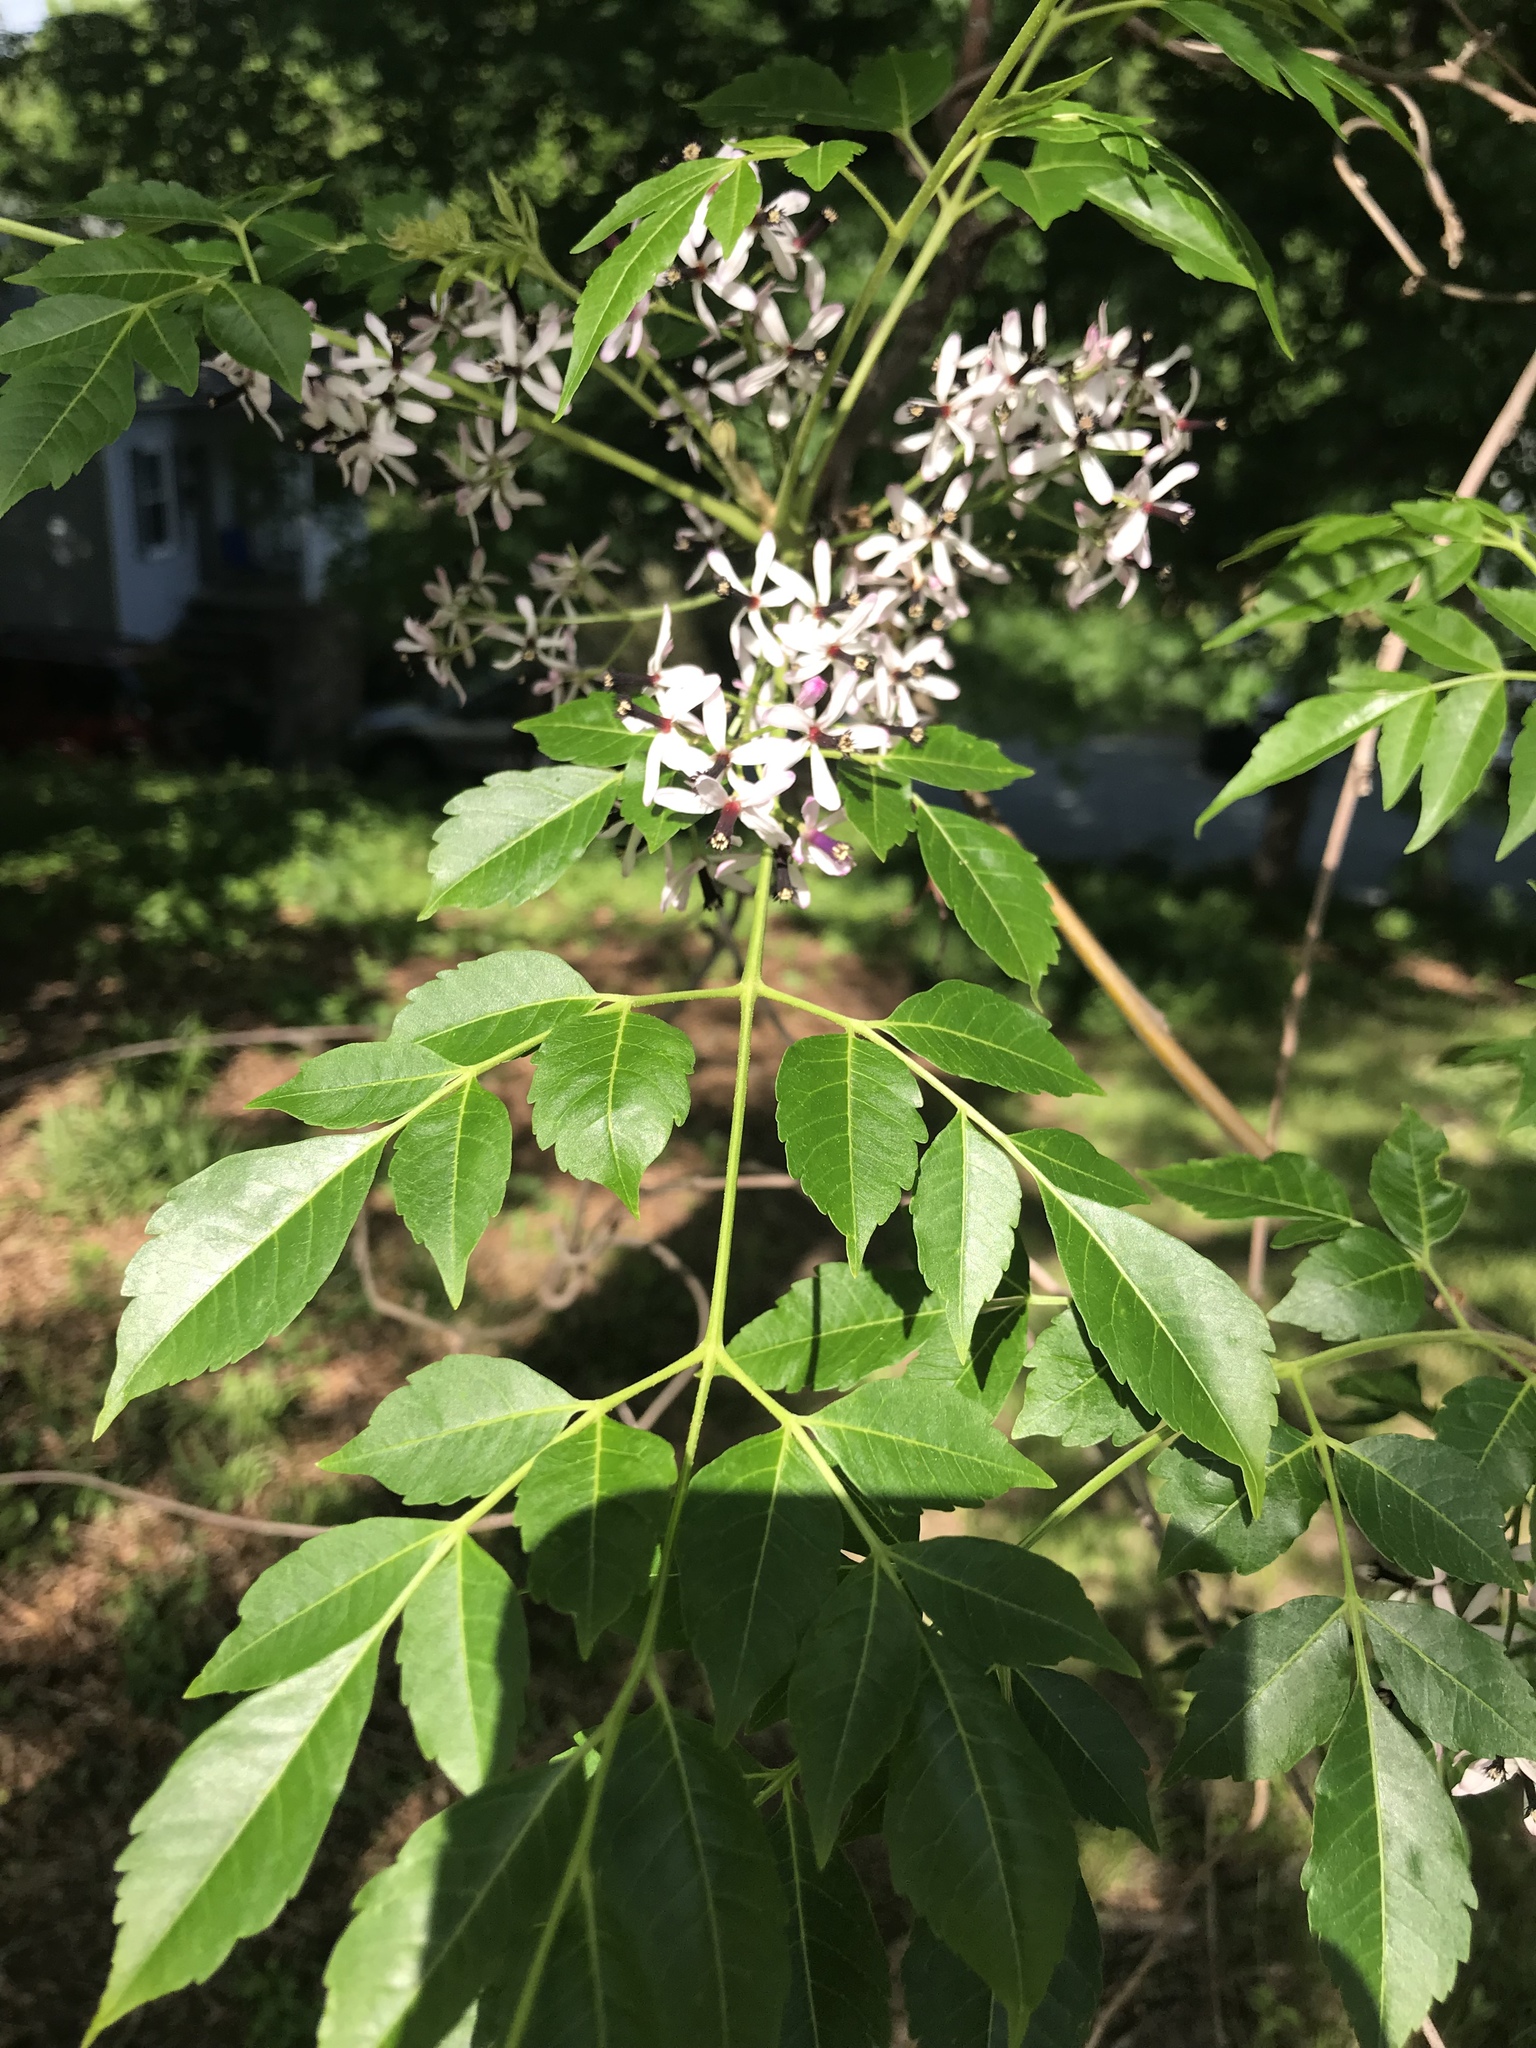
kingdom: Plantae
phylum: Tracheophyta
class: Magnoliopsida
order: Sapindales
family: Meliaceae
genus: Melia
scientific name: Melia azedarach
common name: Chinaberrytree
